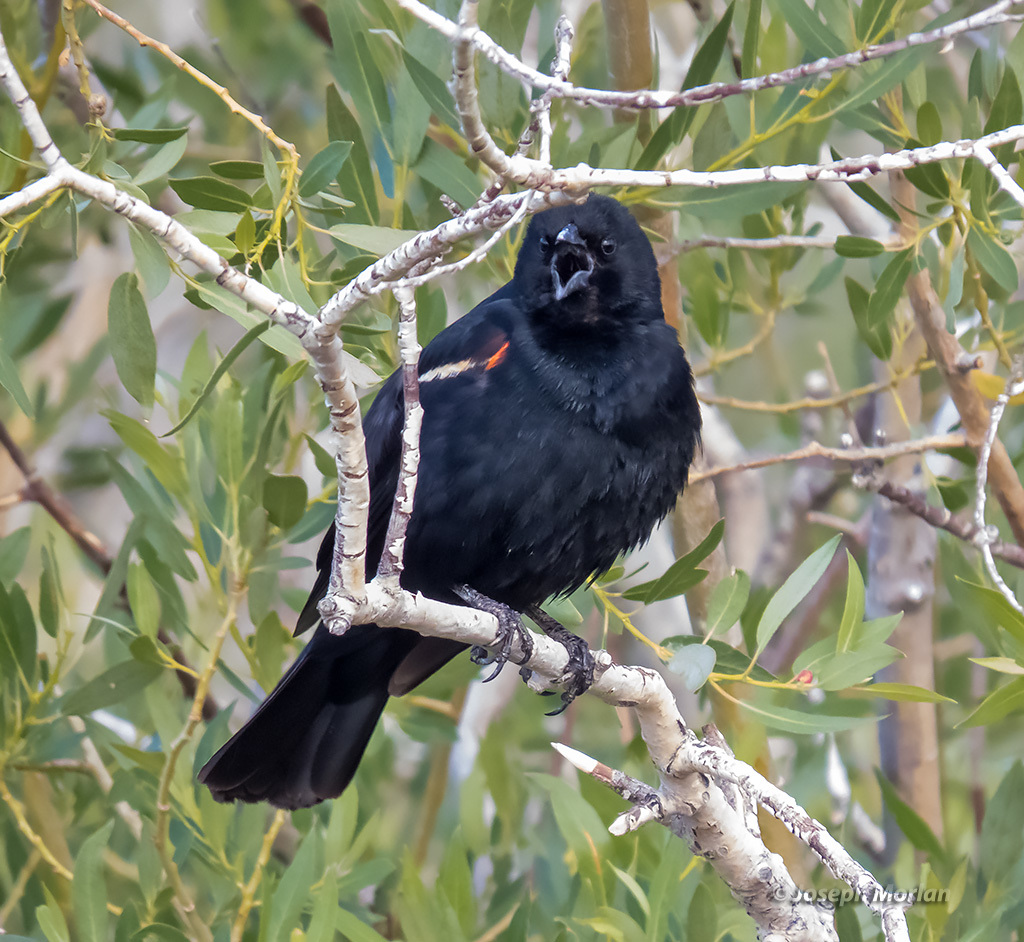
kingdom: Animalia
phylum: Chordata
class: Aves
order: Passeriformes
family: Icteridae
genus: Agelaius
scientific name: Agelaius phoeniceus
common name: Red-winged blackbird
